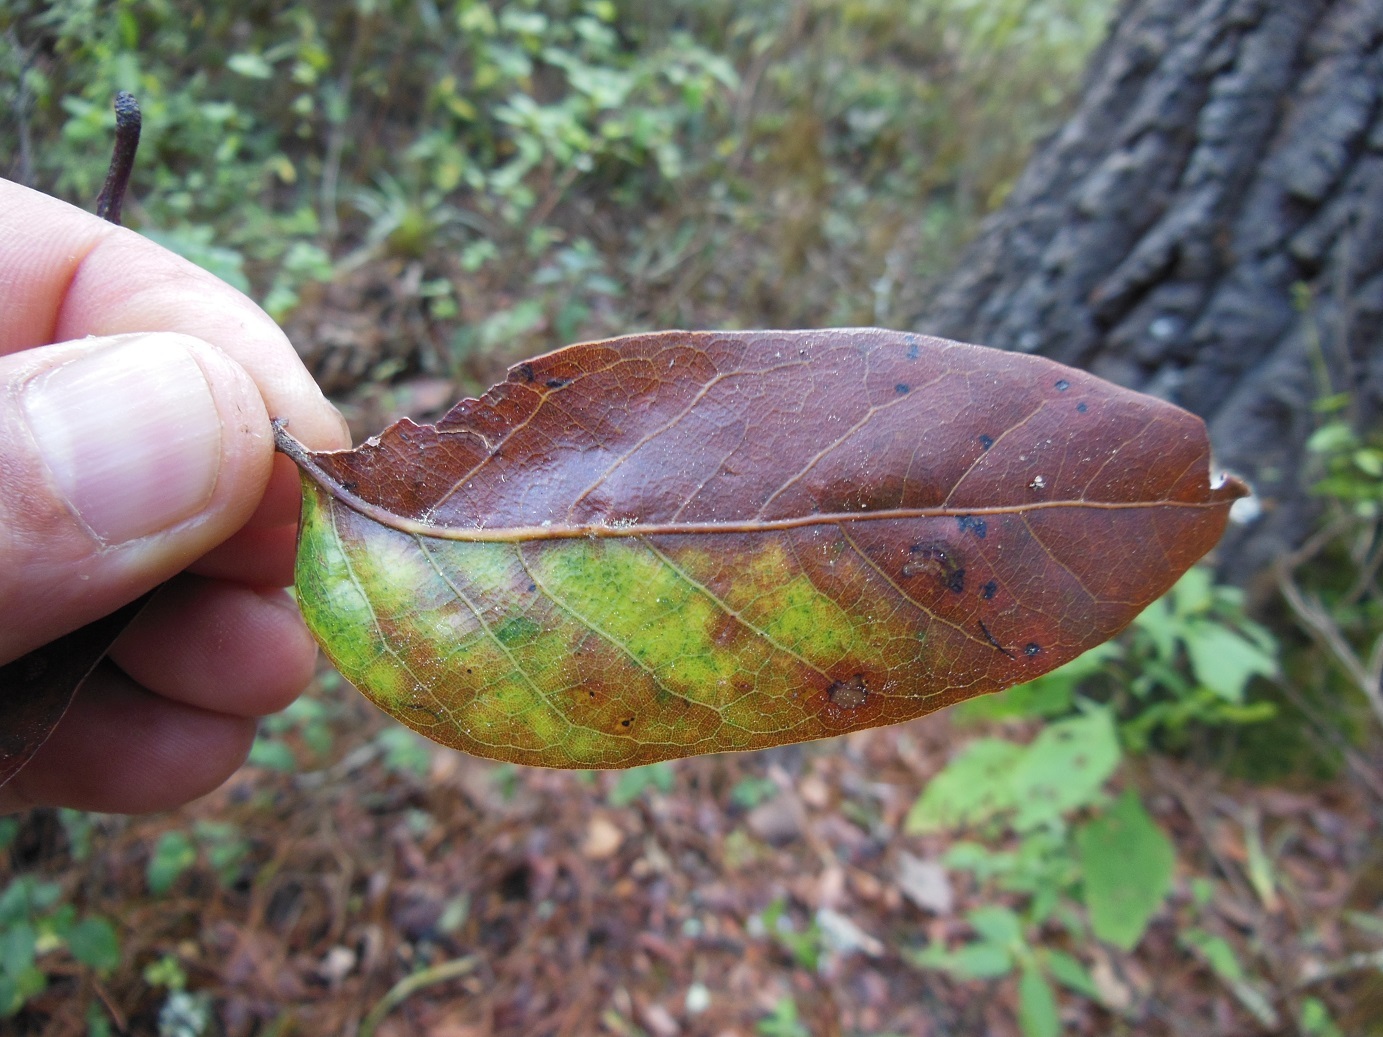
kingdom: Plantae
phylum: Tracheophyta
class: Magnoliopsida
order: Fagales
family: Fagaceae
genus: Quercus
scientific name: Quercus benthamii
